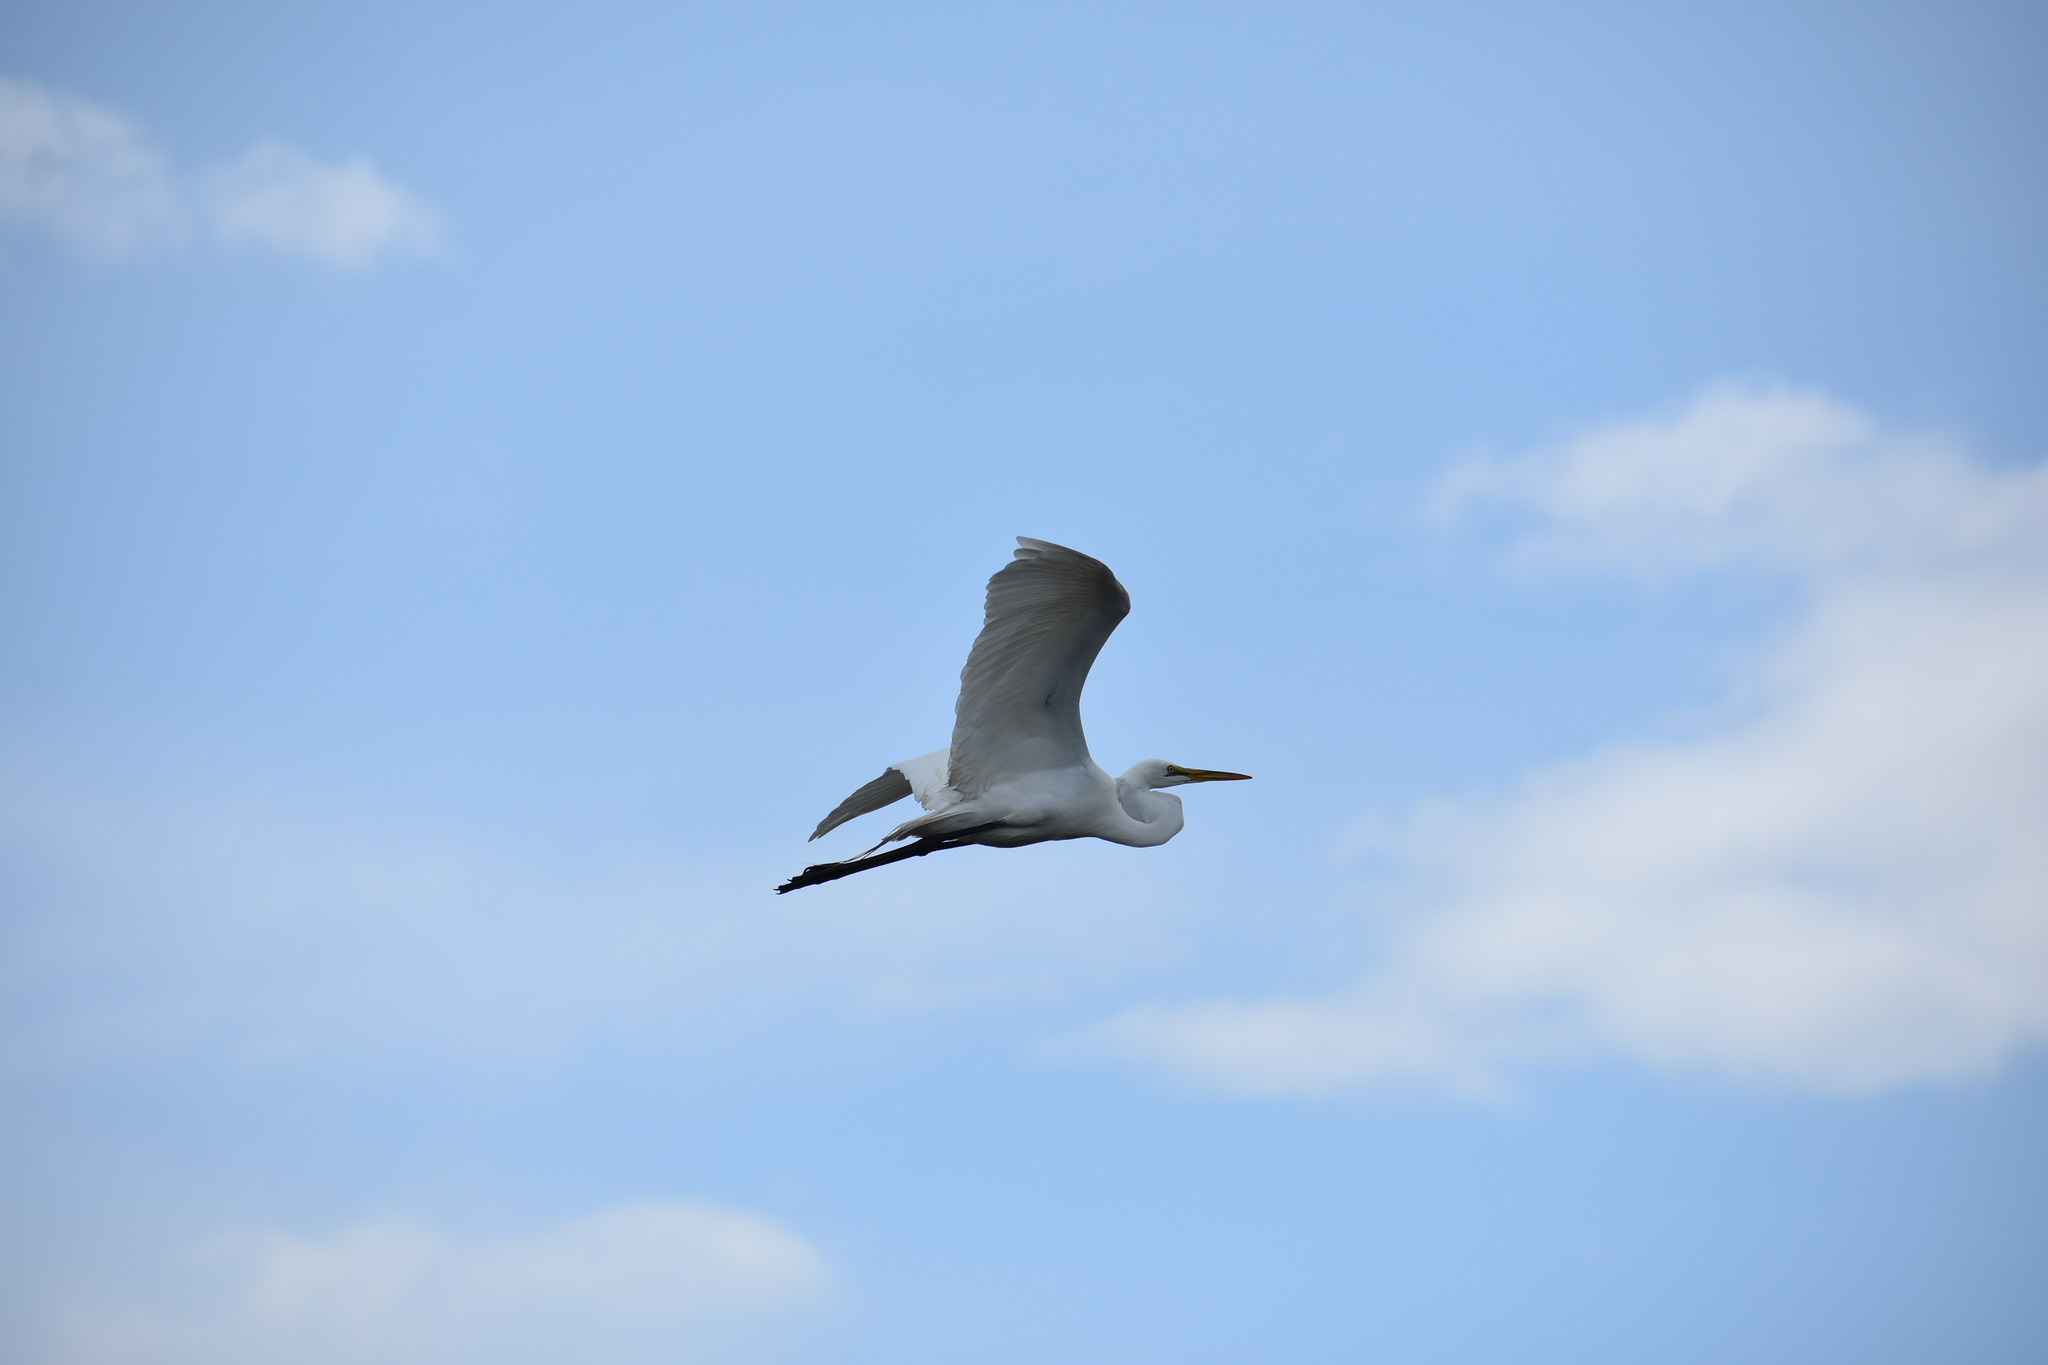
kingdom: Animalia
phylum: Chordata
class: Aves
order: Pelecaniformes
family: Ardeidae
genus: Ardea
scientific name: Ardea alba
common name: Great egret
